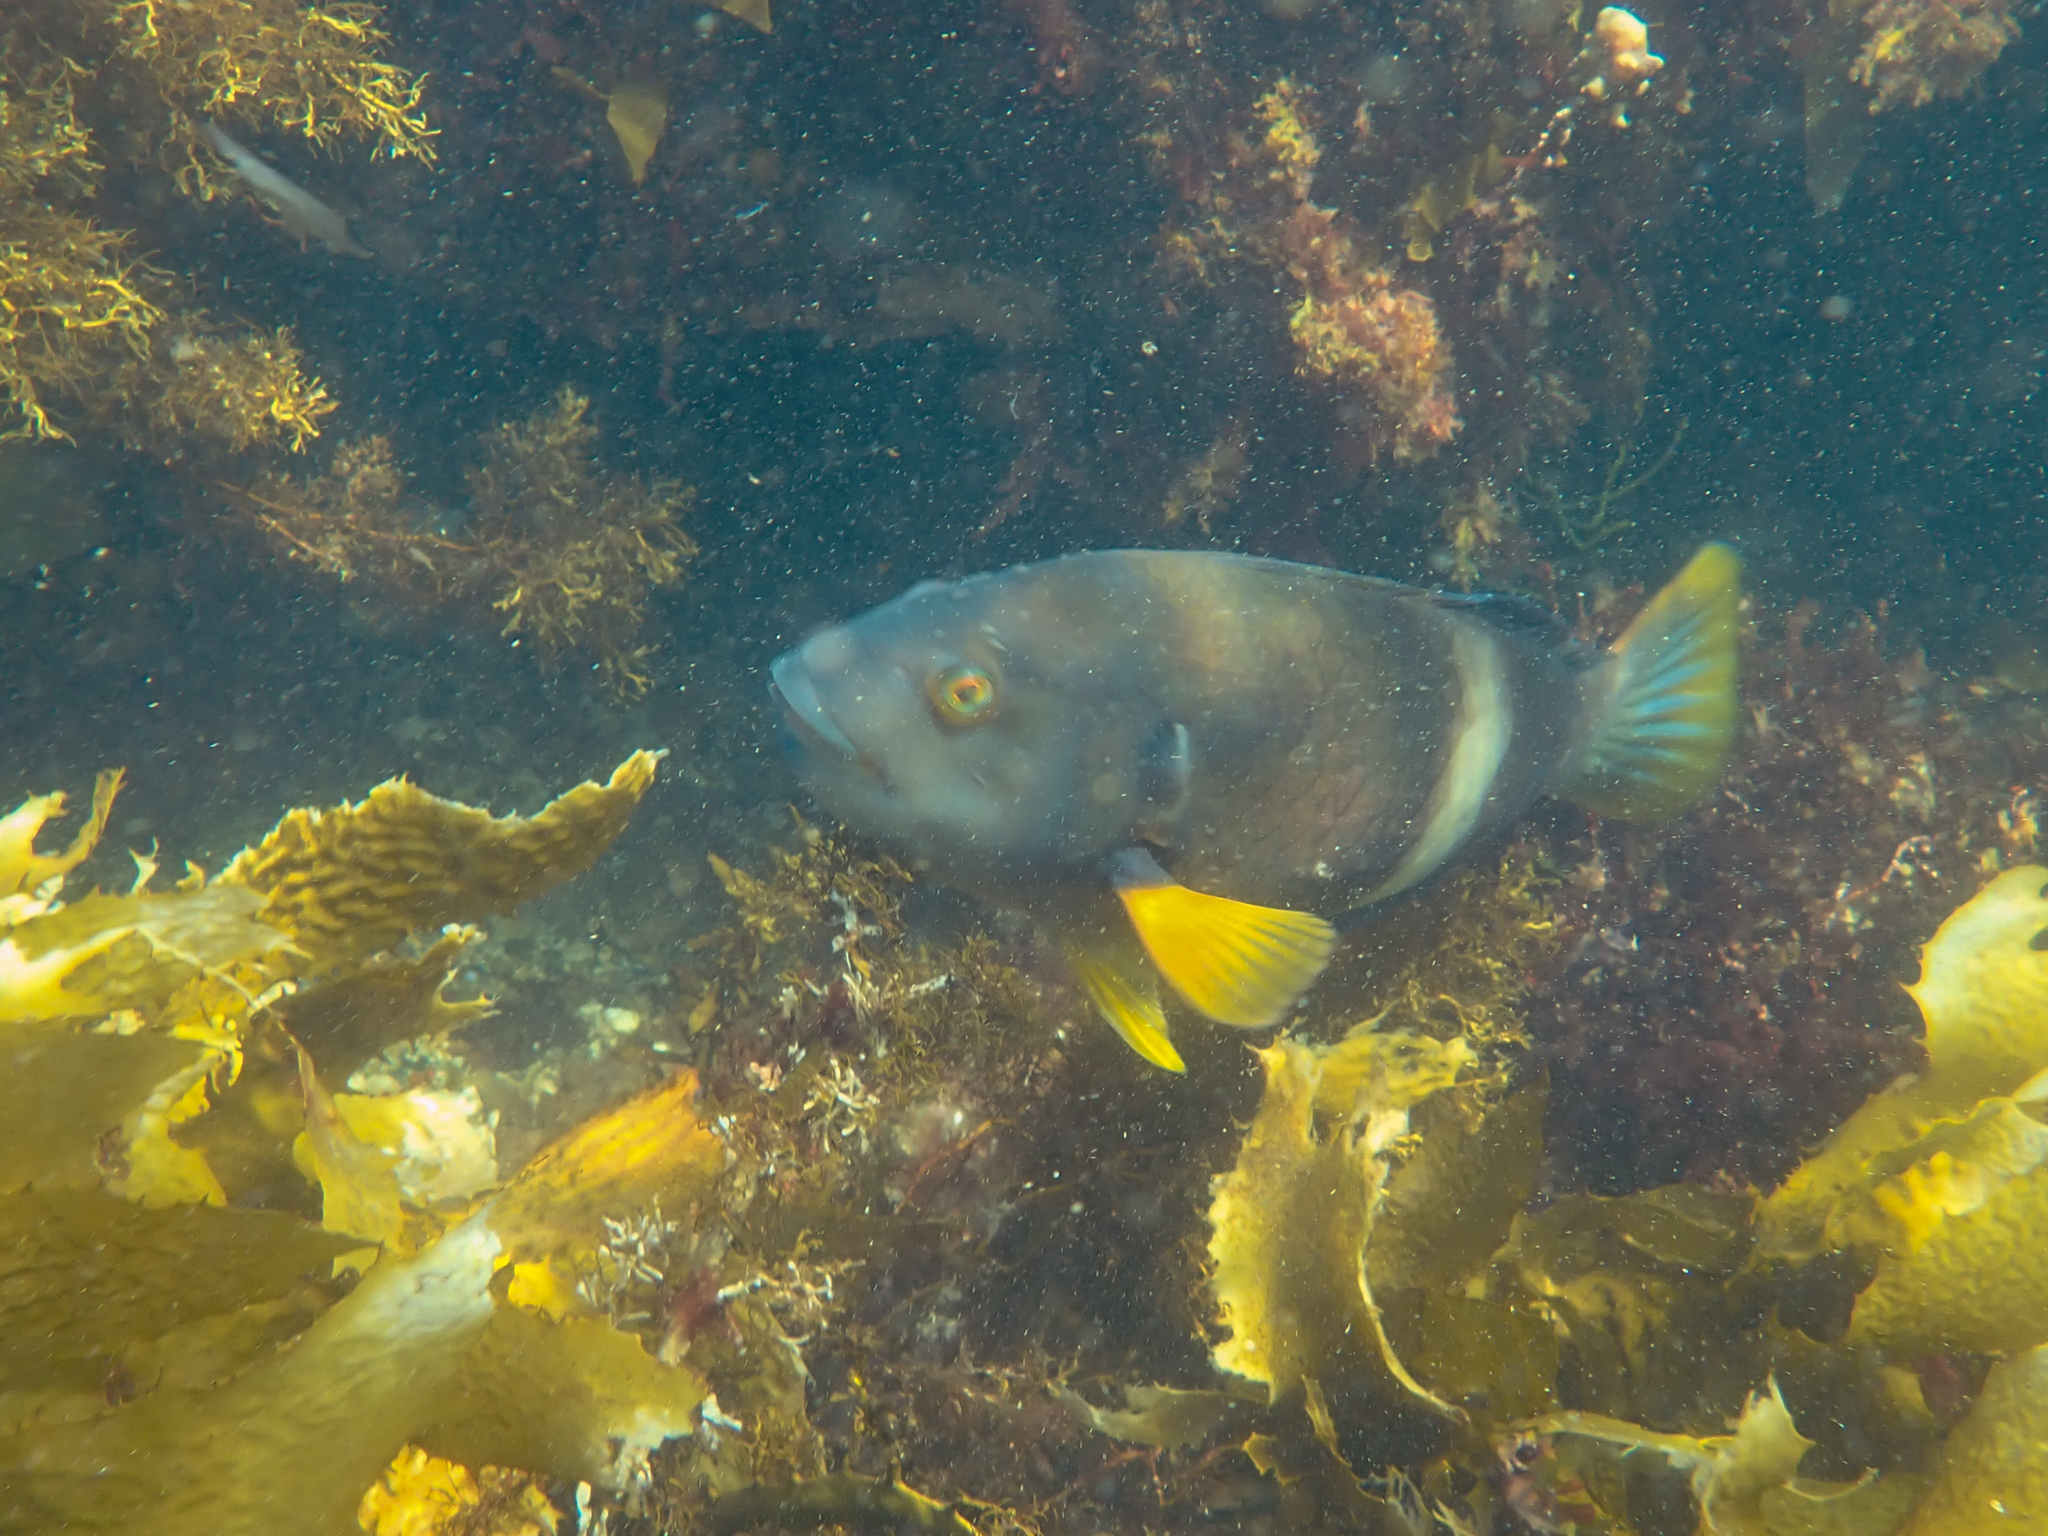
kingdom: Animalia
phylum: Chordata
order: Perciformes
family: Labridae
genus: Notolabrus
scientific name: Notolabrus tetricus
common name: Blue-throated parrotfish
